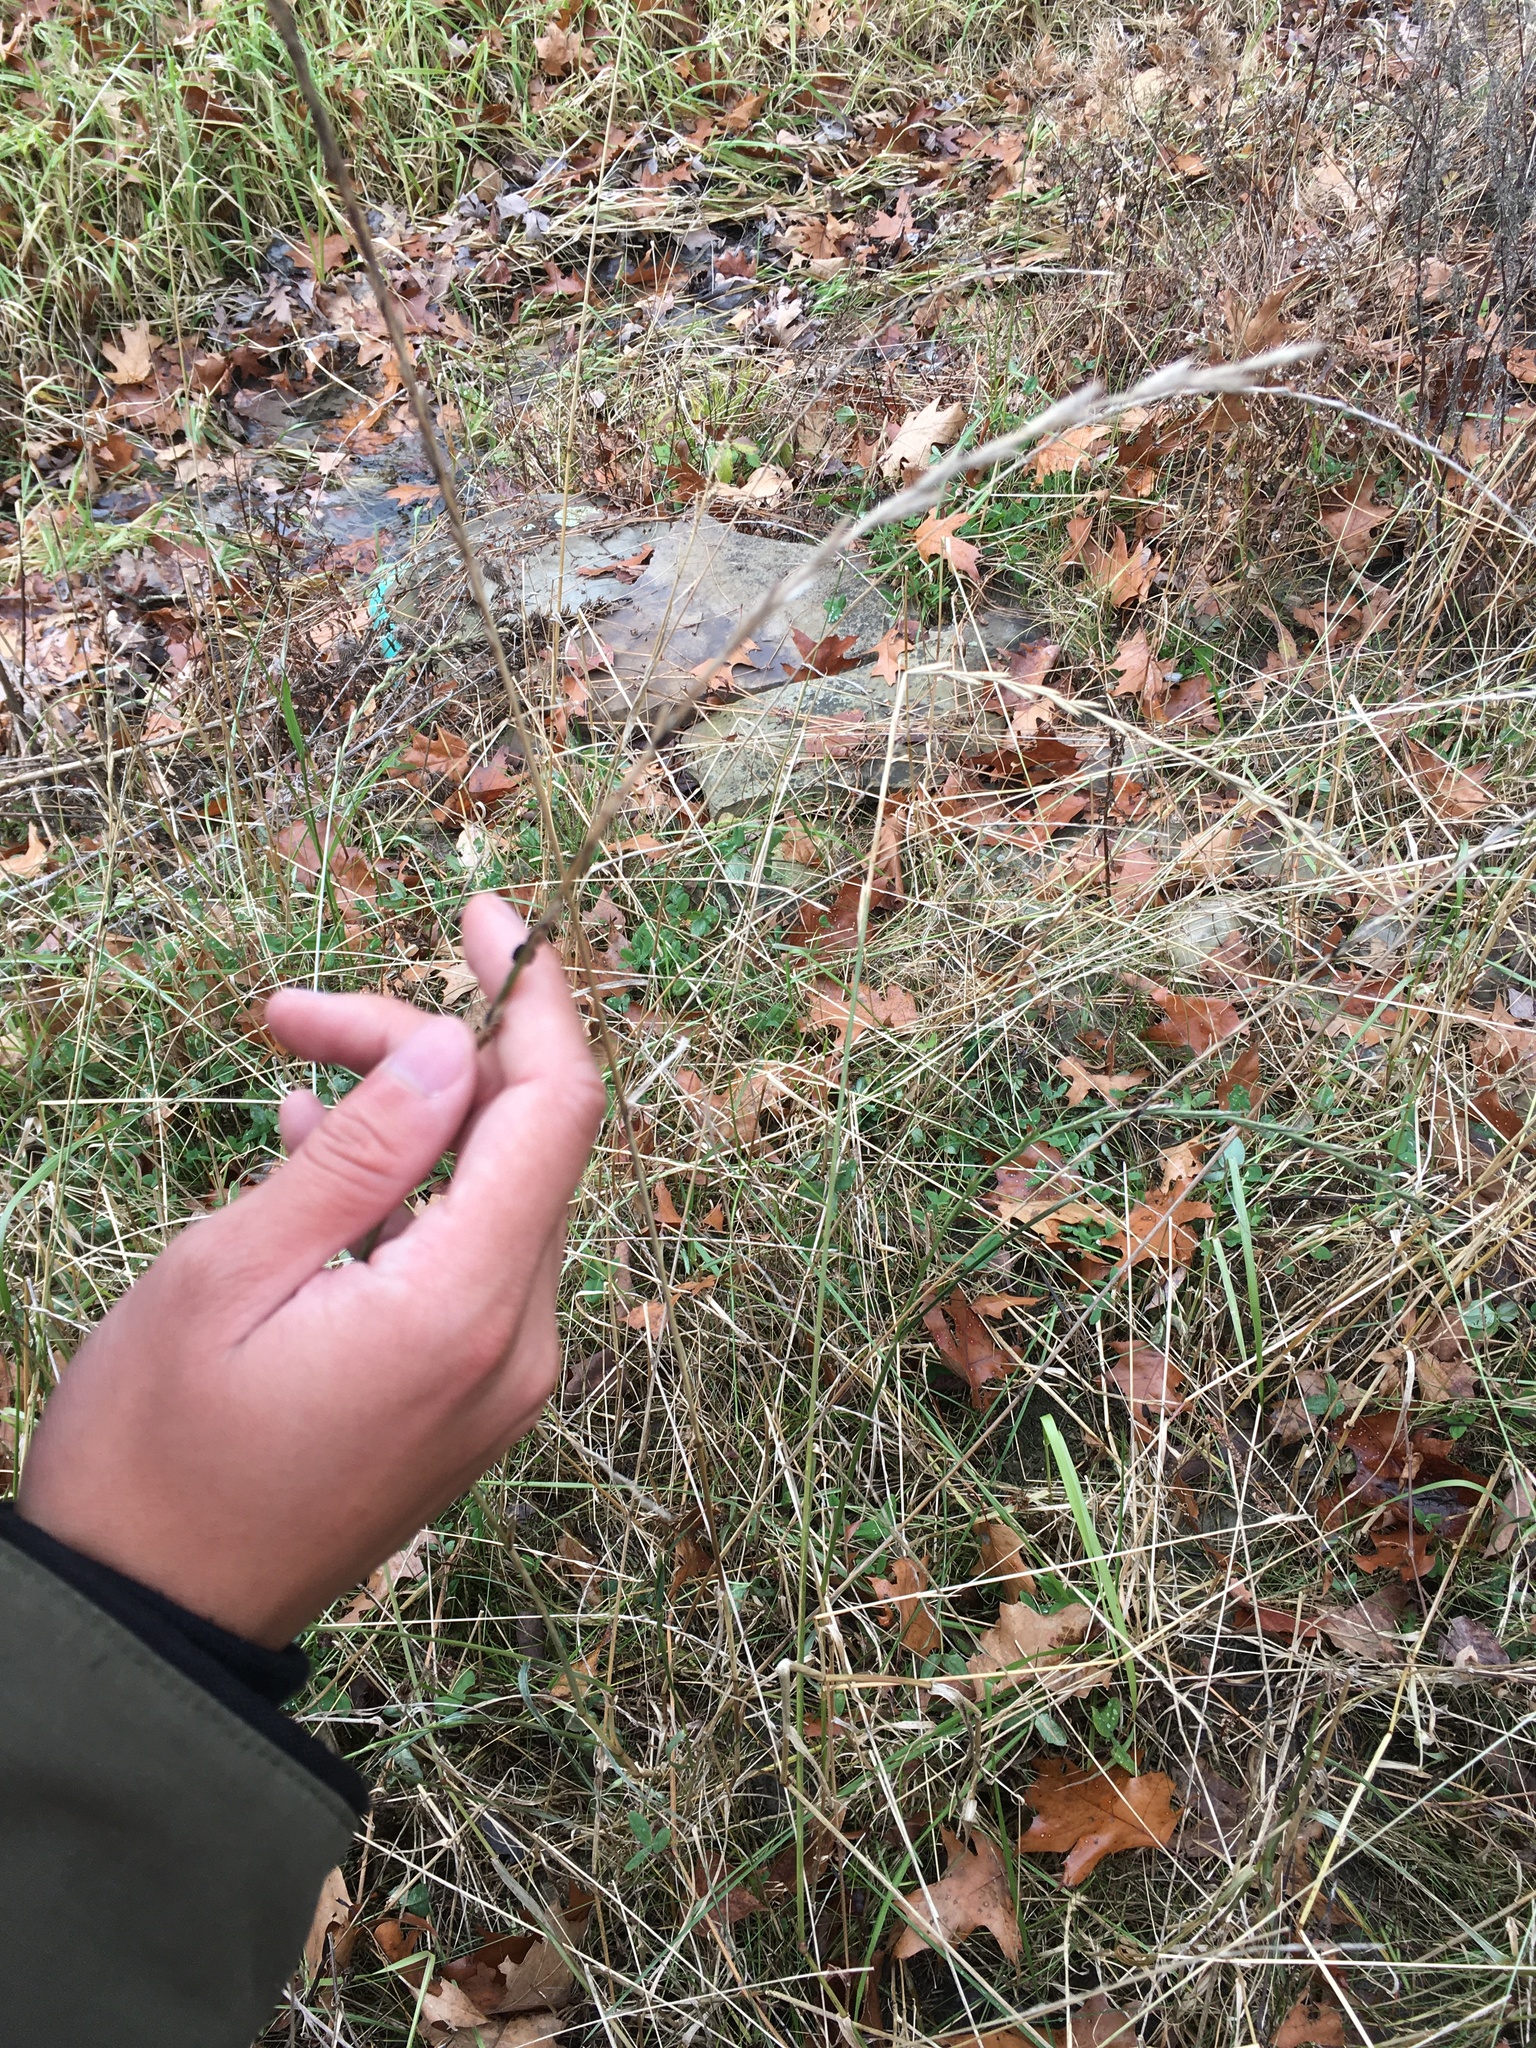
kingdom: Fungi
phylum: Ascomycota
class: Sordariomycetes
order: Hypocreales
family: Clavicipitaceae
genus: Claviceps
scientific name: Claviceps purpurea
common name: Rye ergot
